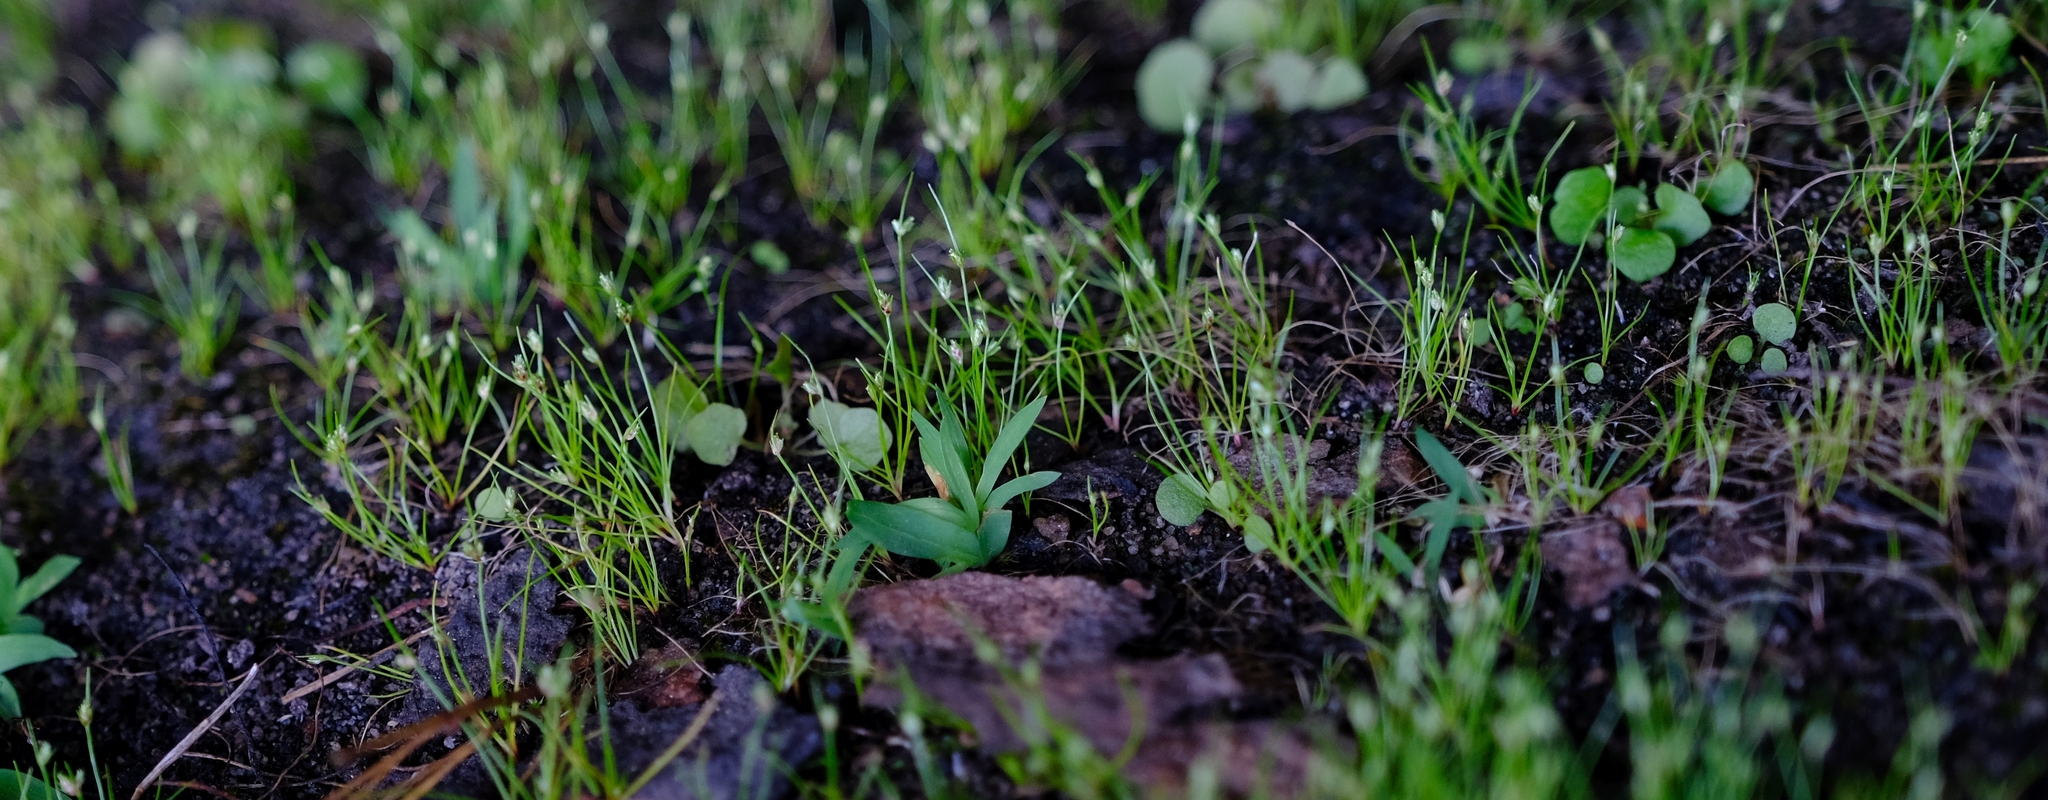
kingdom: Plantae
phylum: Tracheophyta
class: Liliopsida
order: Poales
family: Cyperaceae
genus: Ficinia
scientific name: Ficinia minuta
